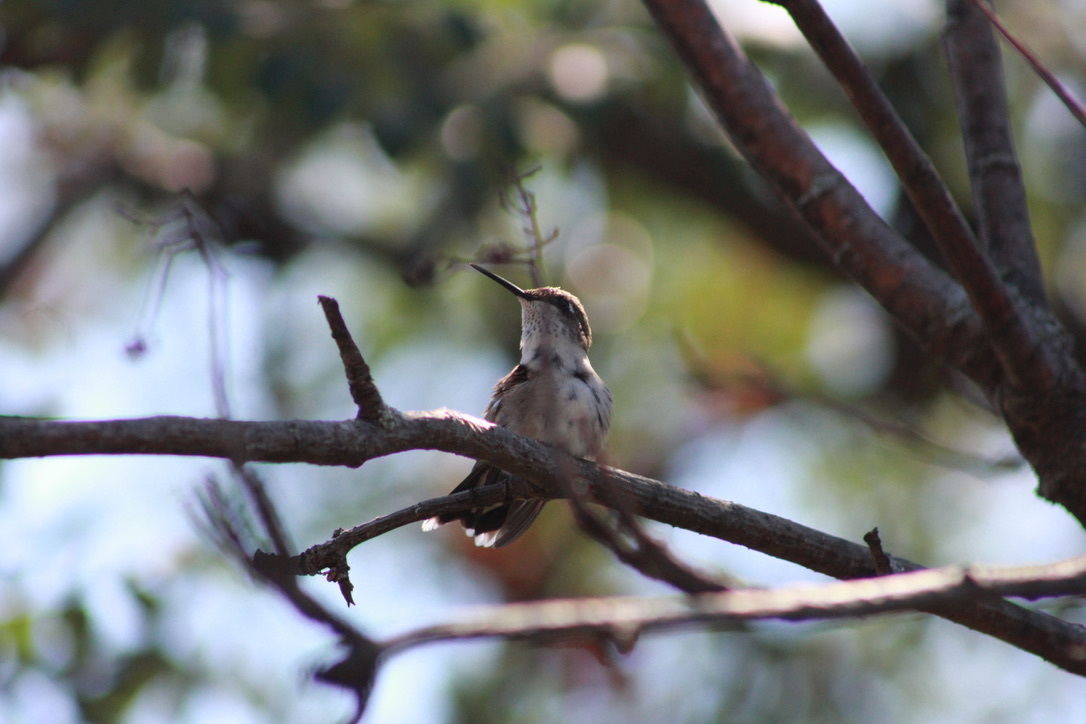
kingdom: Animalia
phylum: Chordata
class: Aves
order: Apodiformes
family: Trochilidae
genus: Archilochus
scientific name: Archilochus colubris
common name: Ruby-throated hummingbird
